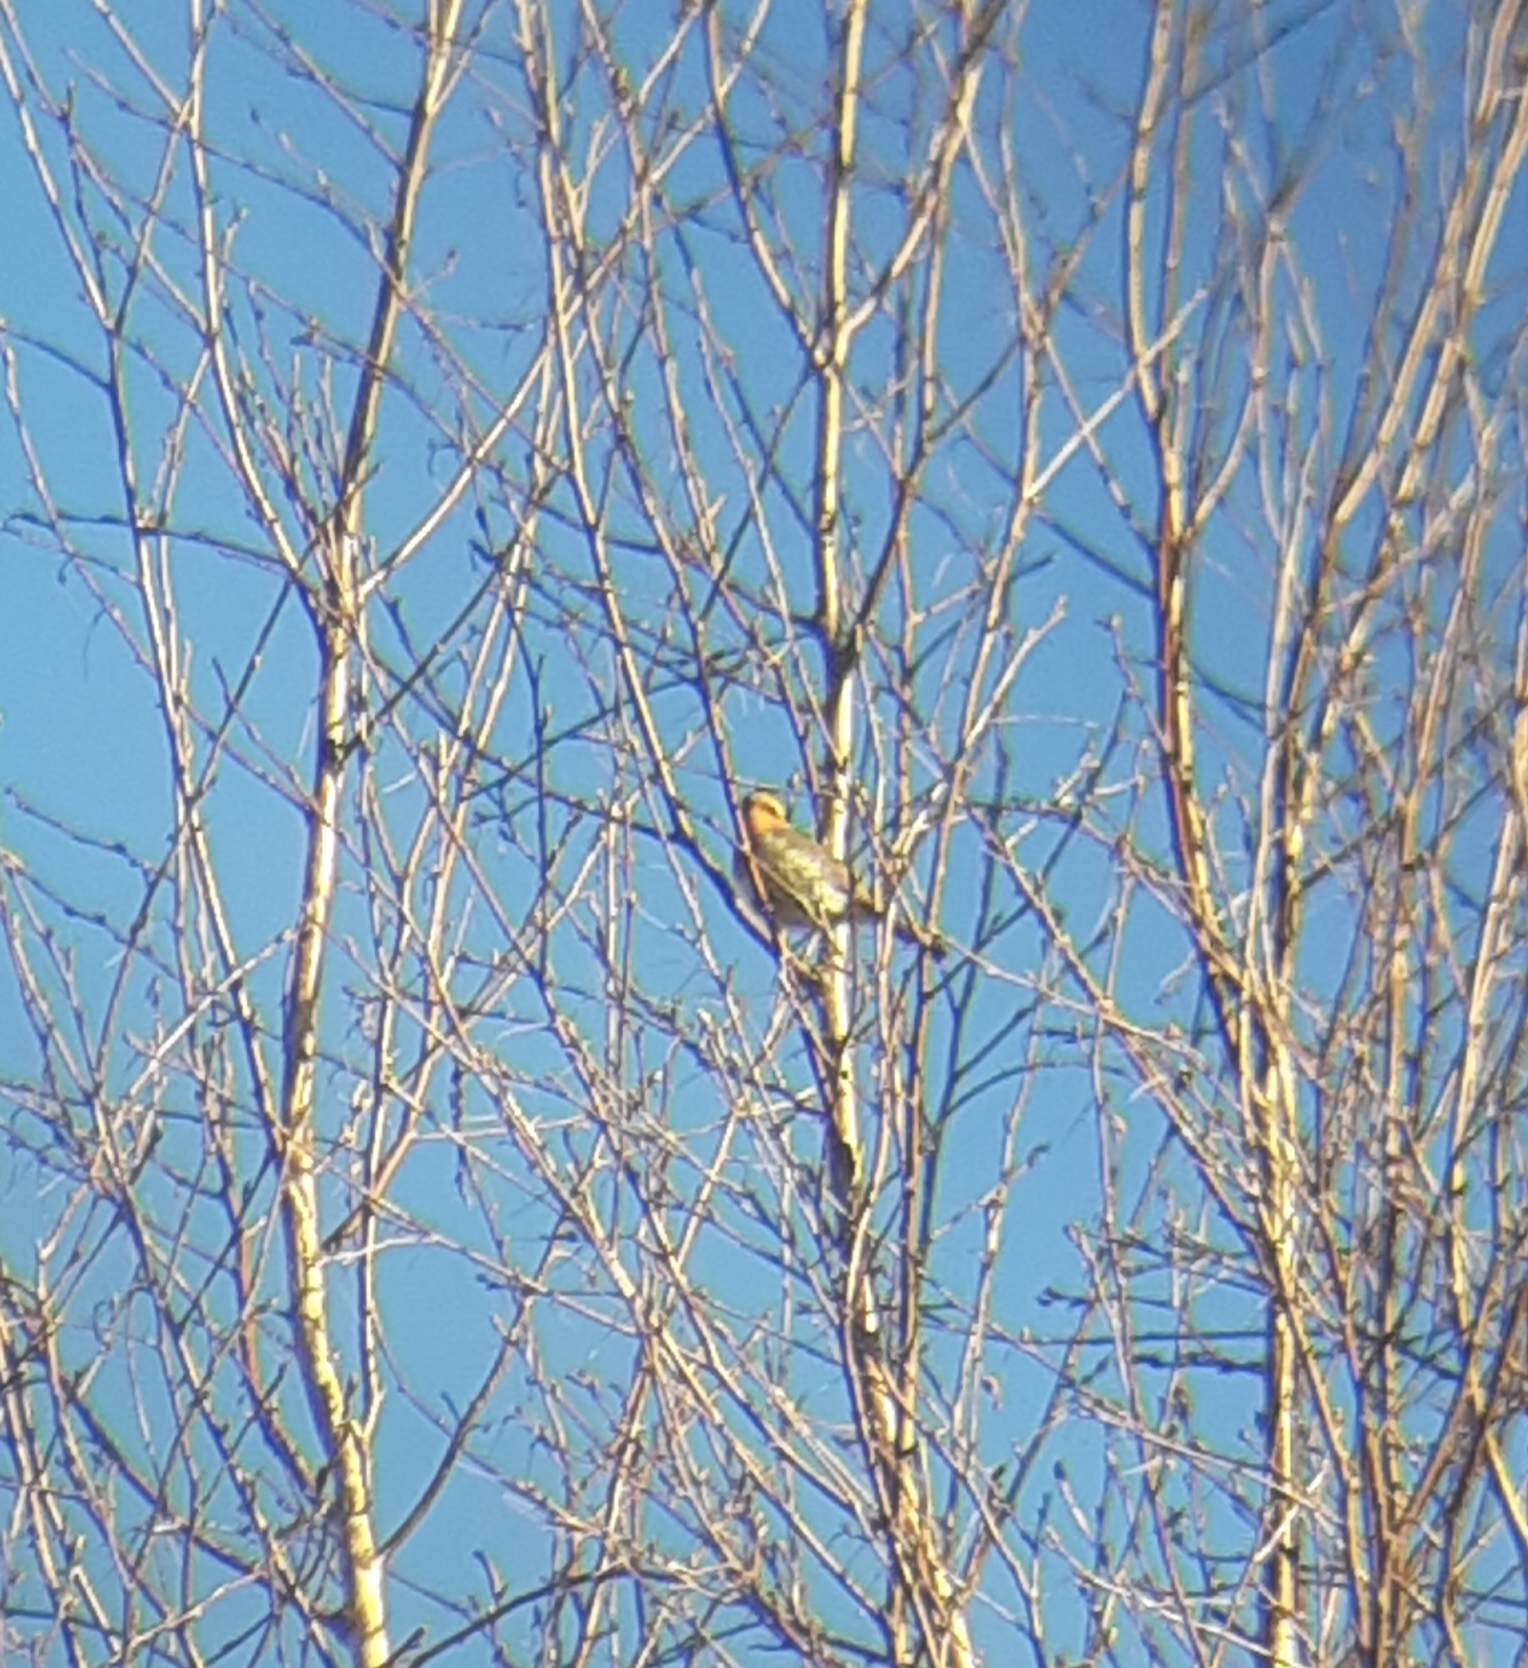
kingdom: Animalia
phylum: Chordata
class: Aves
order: Passeriformes
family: Muscicapidae
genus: Erithacus
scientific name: Erithacus rubecula
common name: European robin
